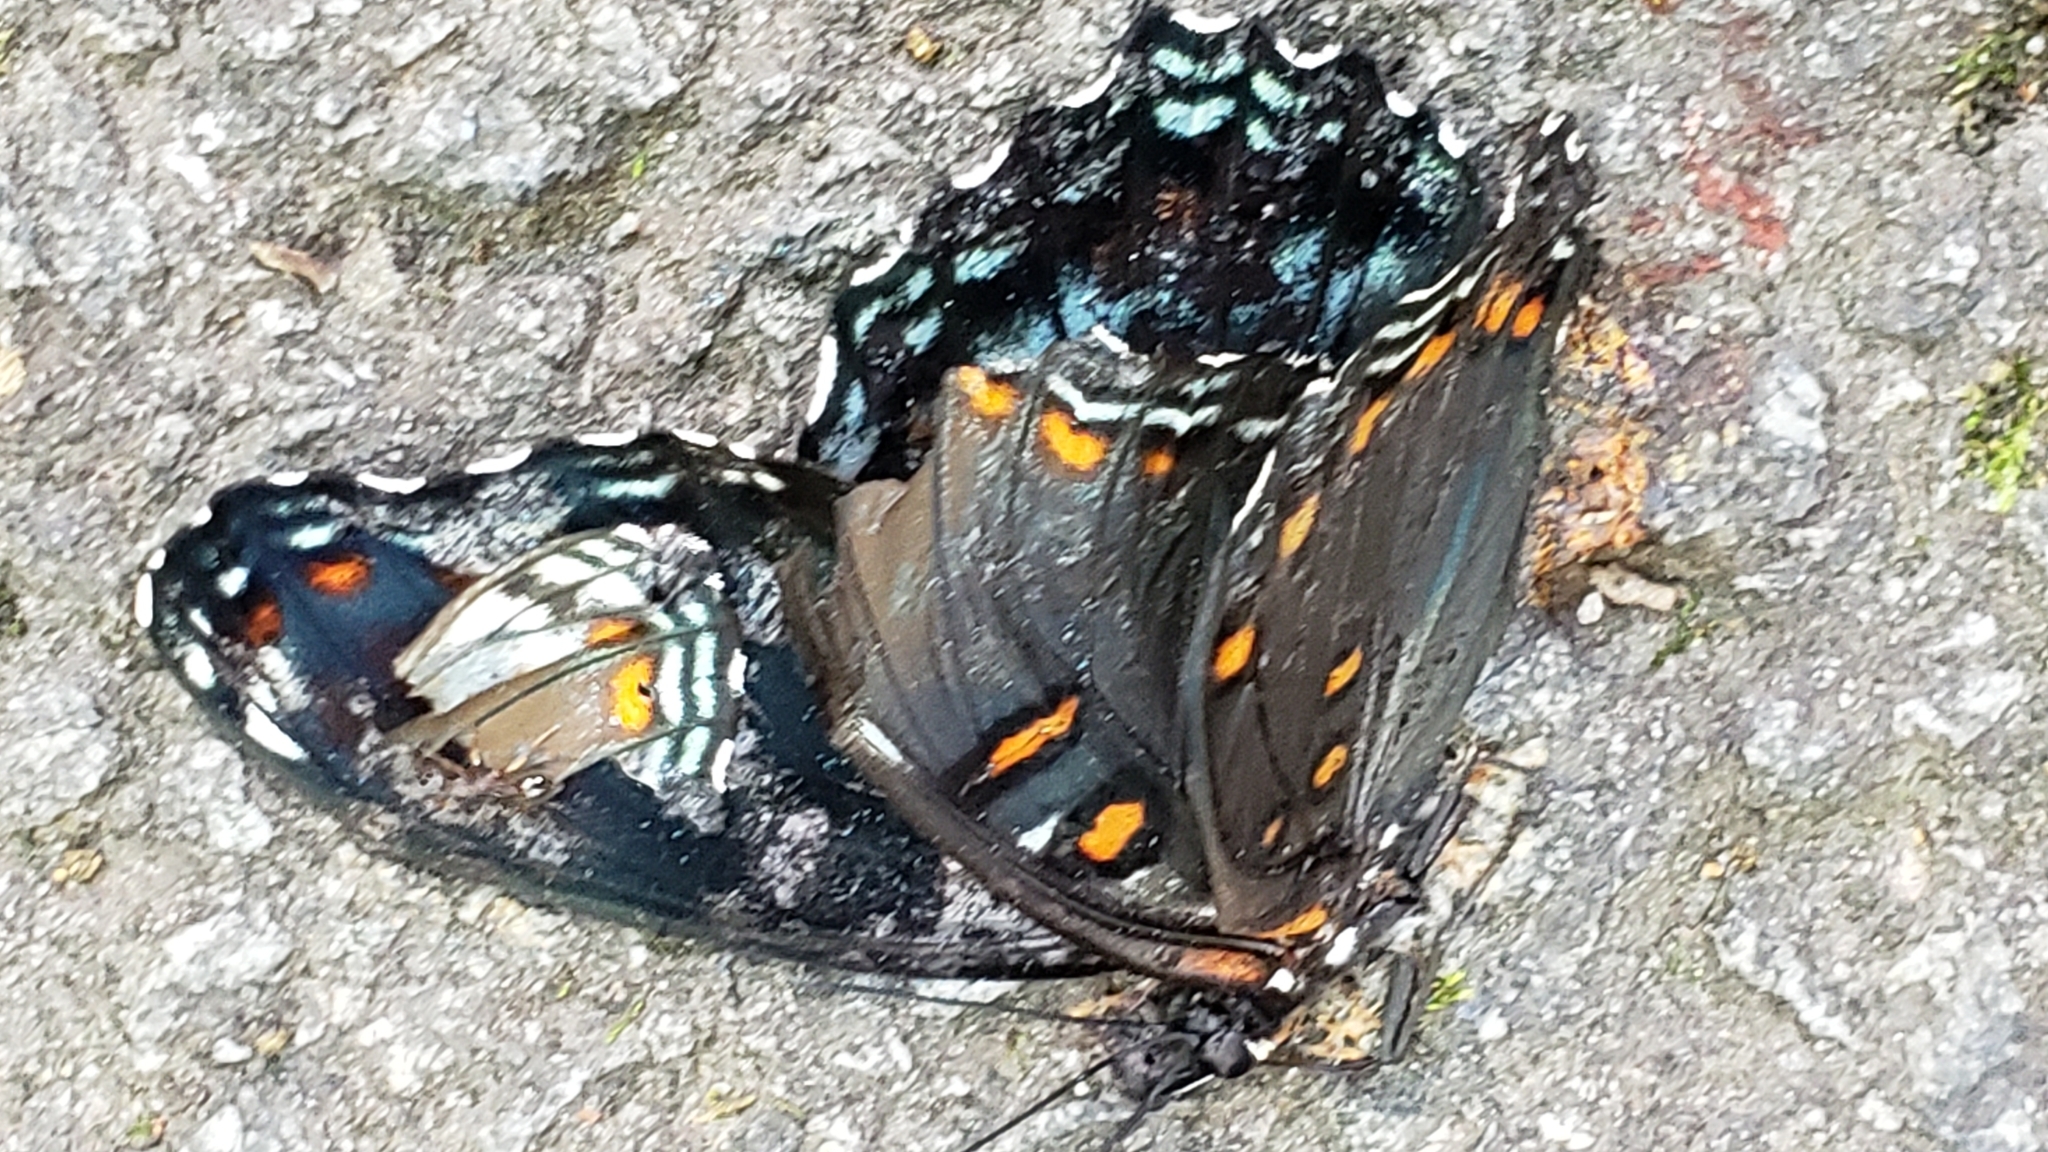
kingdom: Animalia
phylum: Arthropoda
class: Insecta
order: Lepidoptera
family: Nymphalidae
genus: Limenitis
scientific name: Limenitis arthemis
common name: Red-spotted admiral
